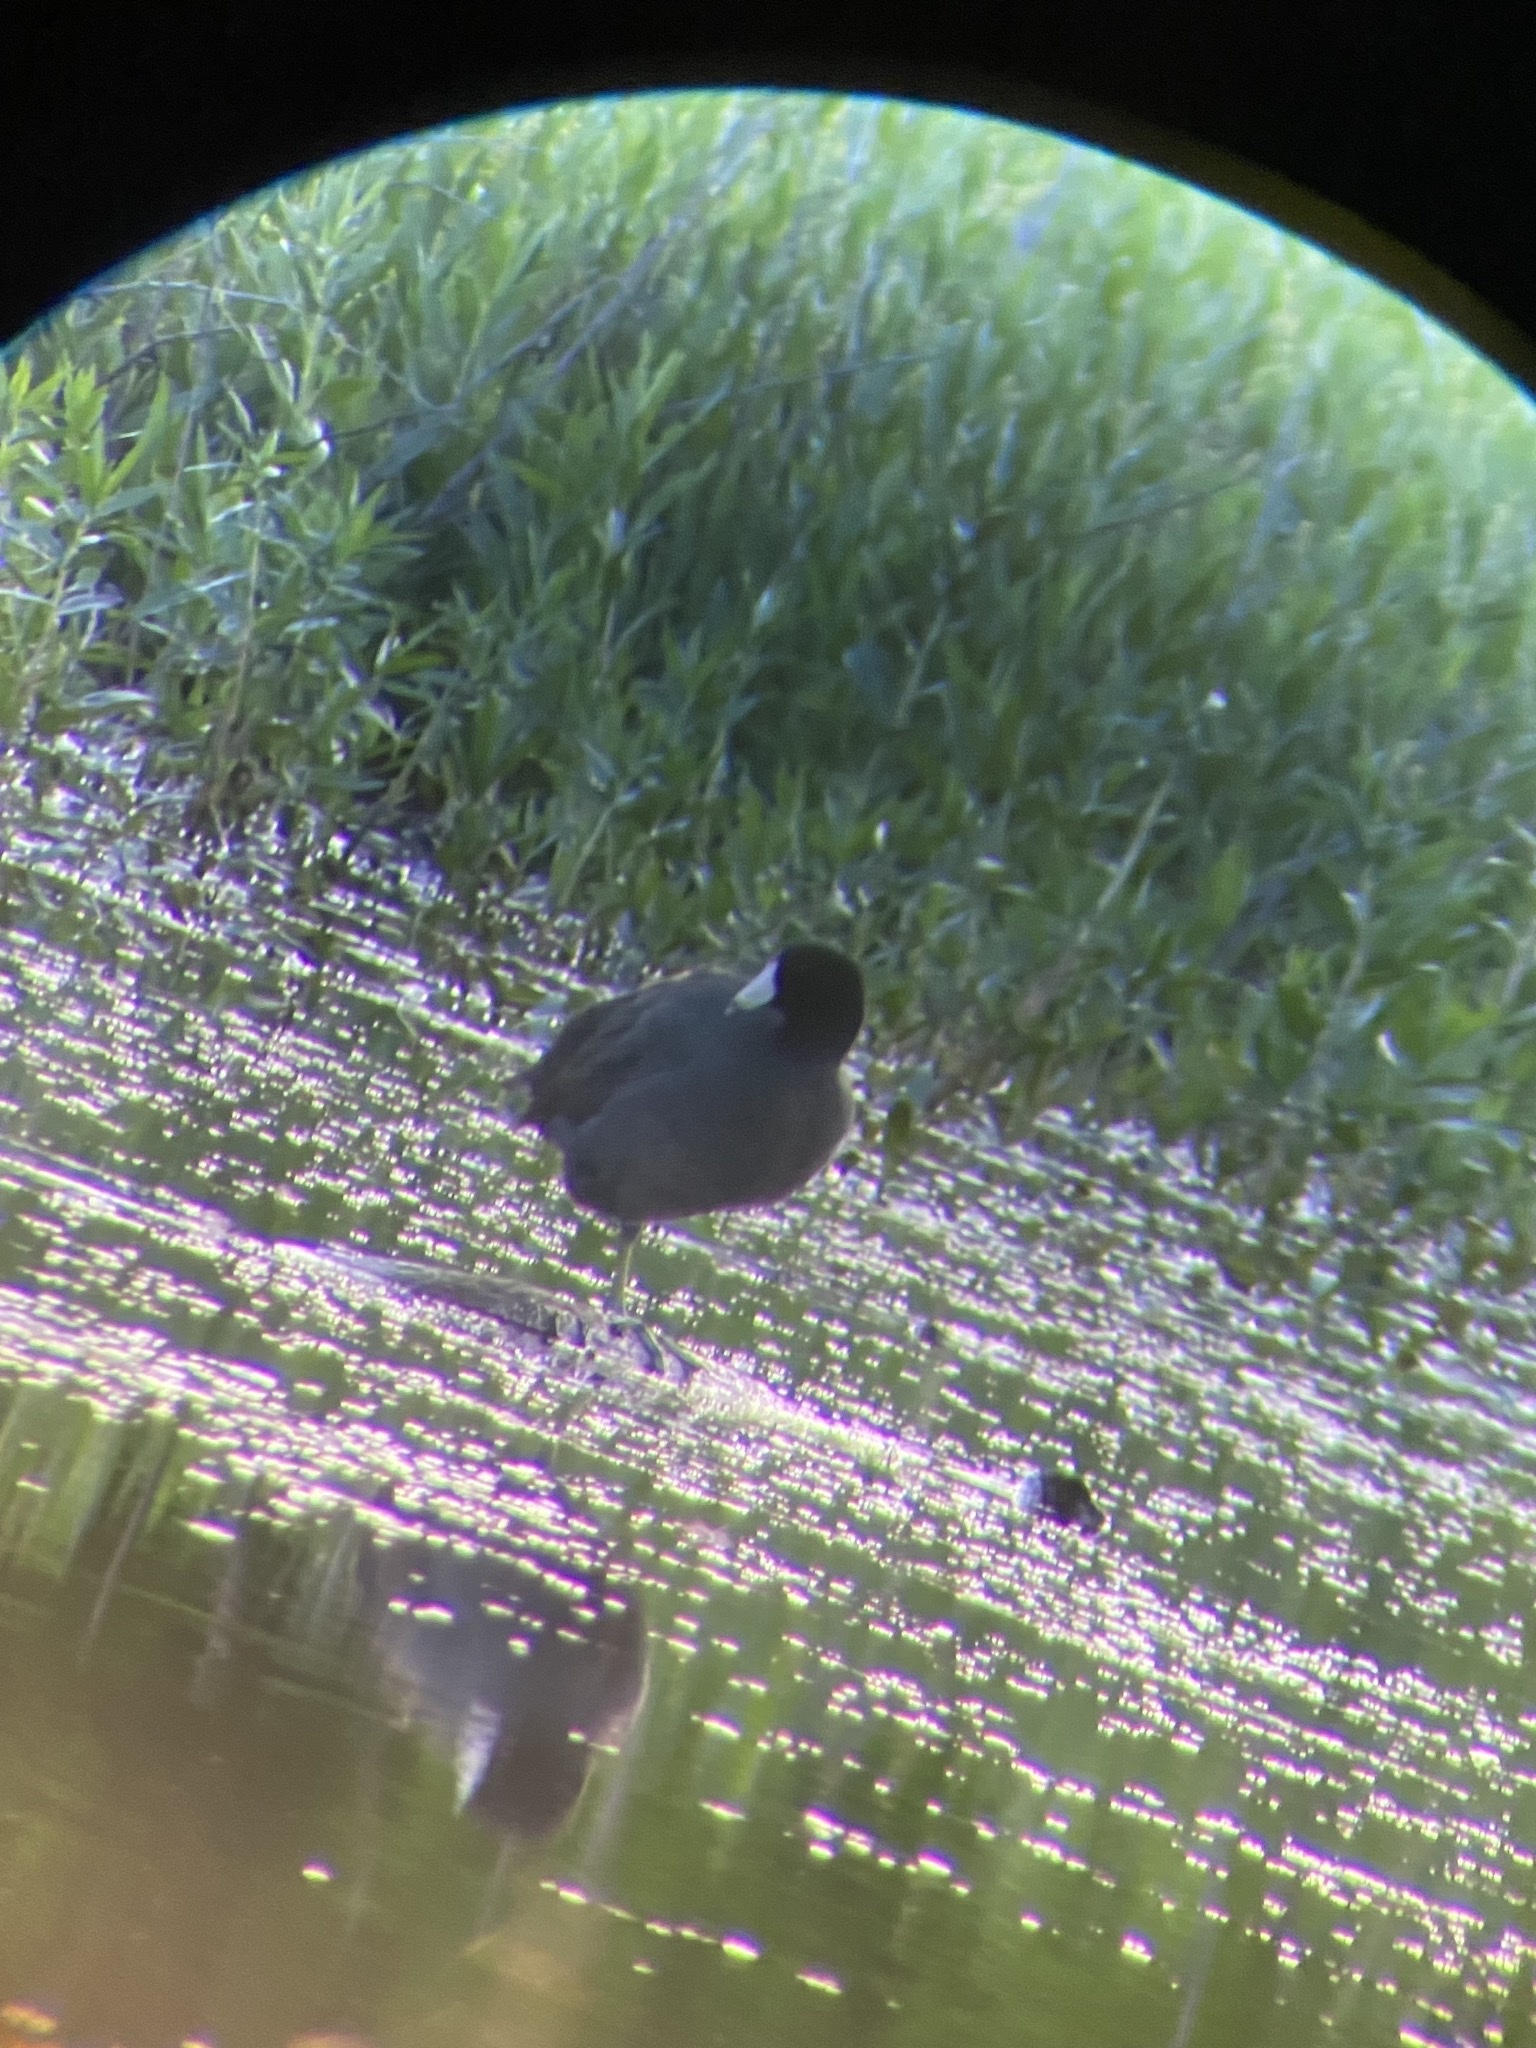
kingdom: Animalia
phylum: Chordata
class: Aves
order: Gruiformes
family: Rallidae
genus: Fulica
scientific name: Fulica americana
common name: American coot
